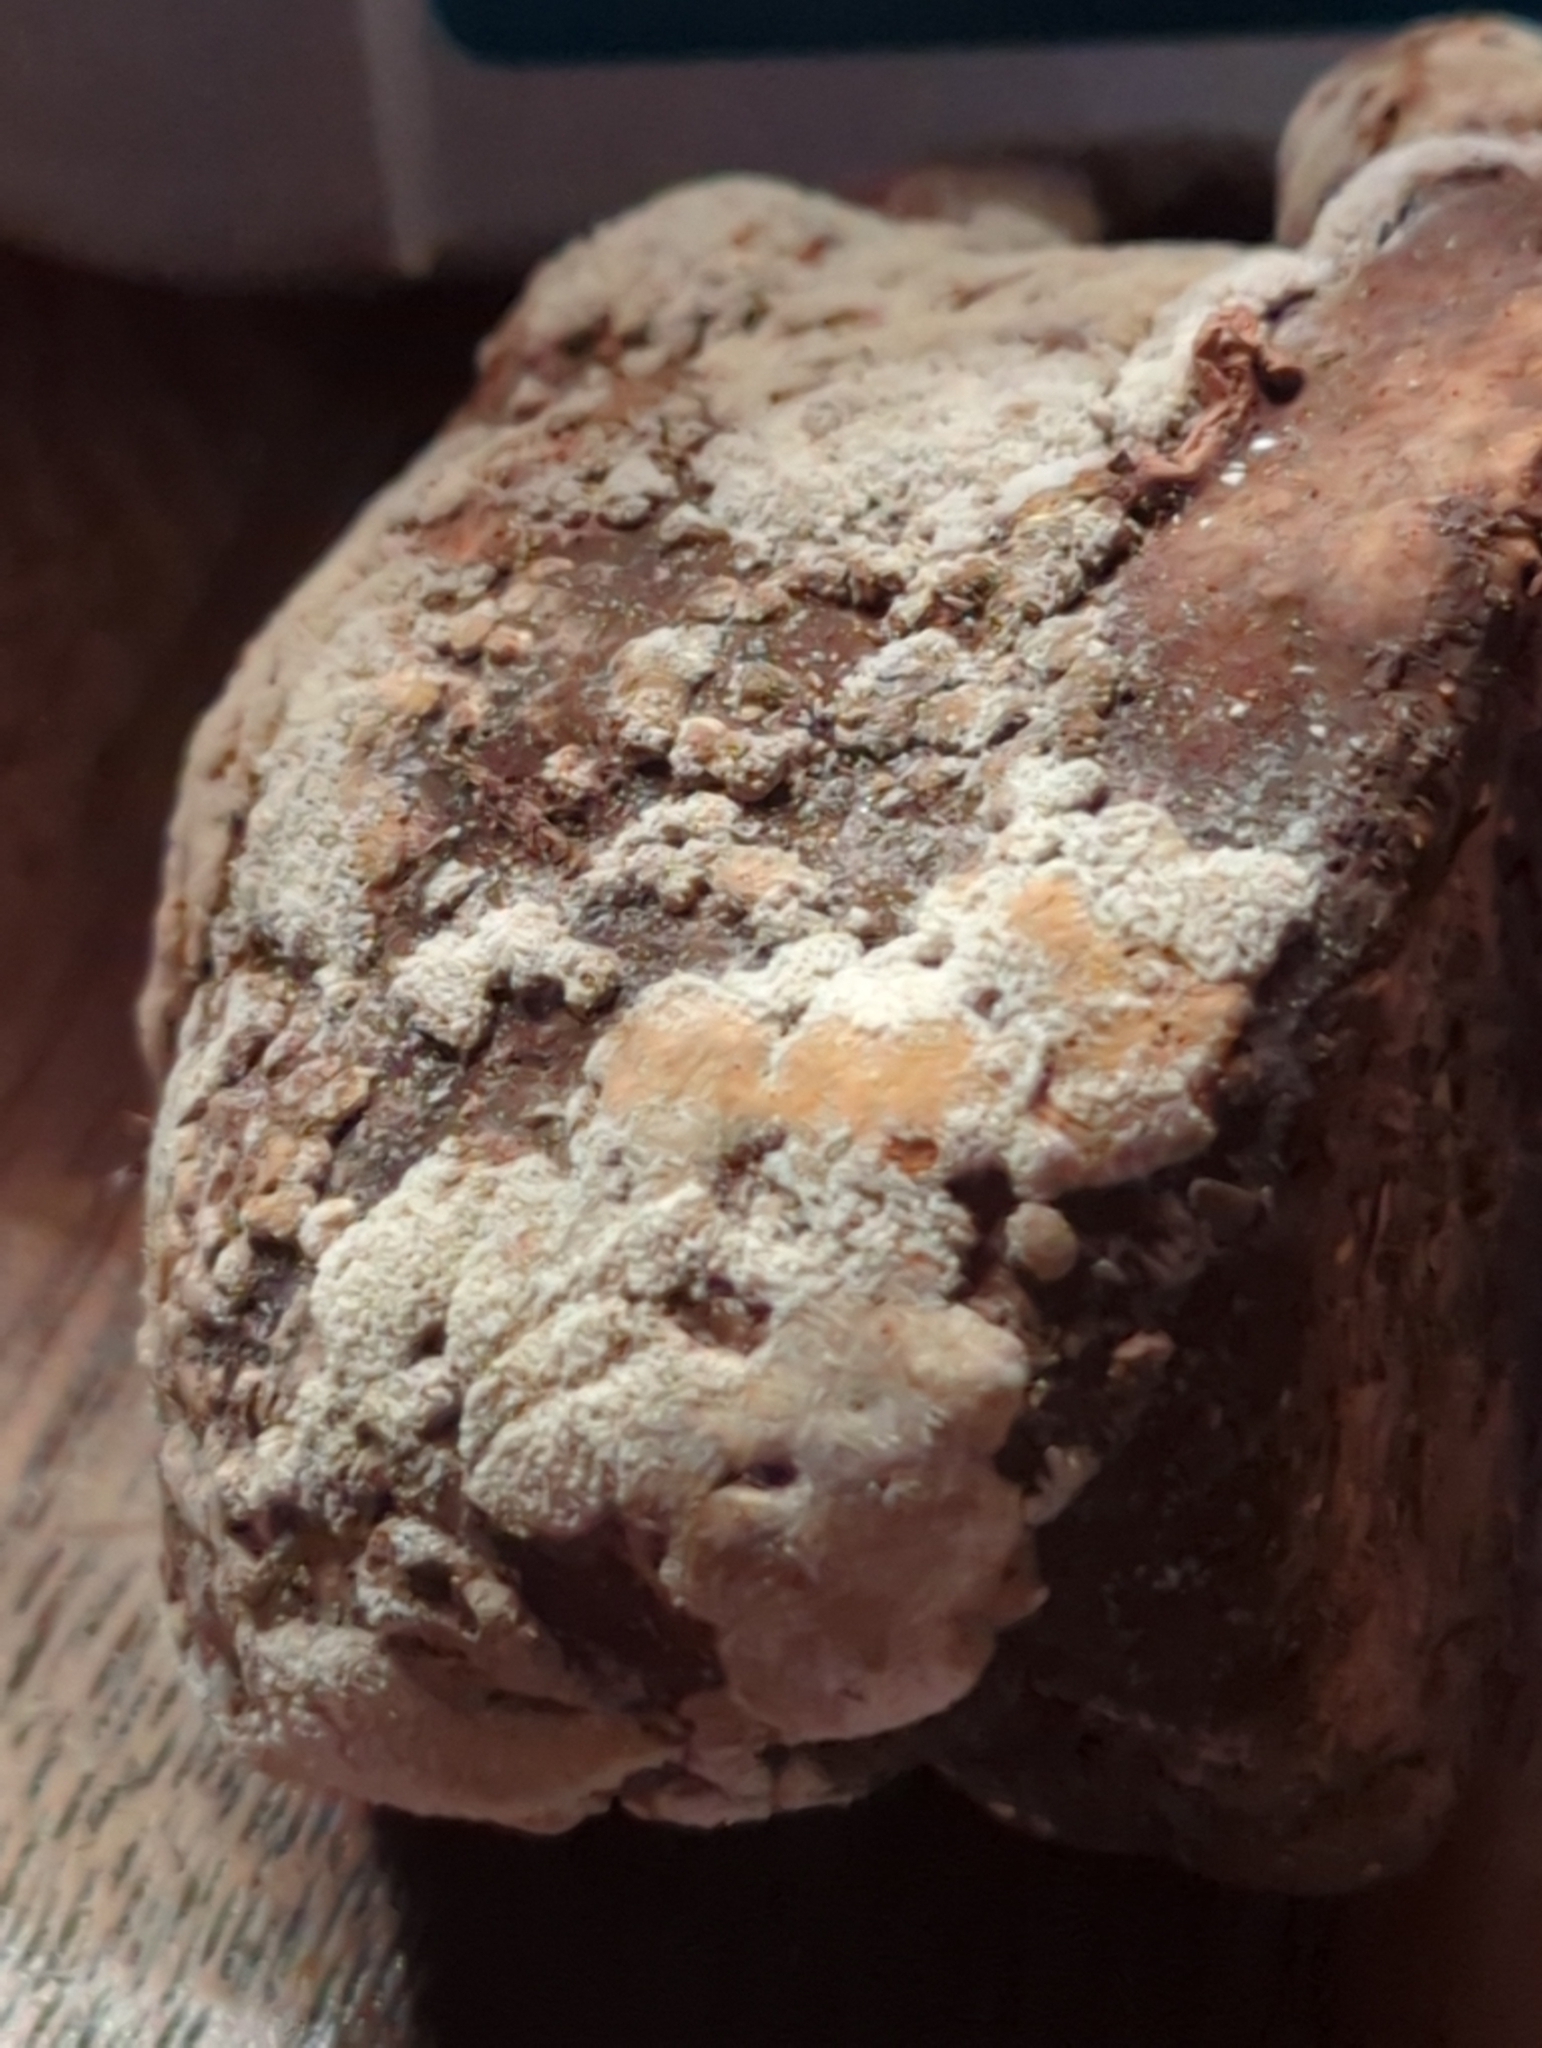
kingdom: Fungi
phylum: Ascomycota
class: Sordariomycetes
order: Hypocreales
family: Hypocreaceae
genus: Trichoderma
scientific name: Trichoderma americanum
